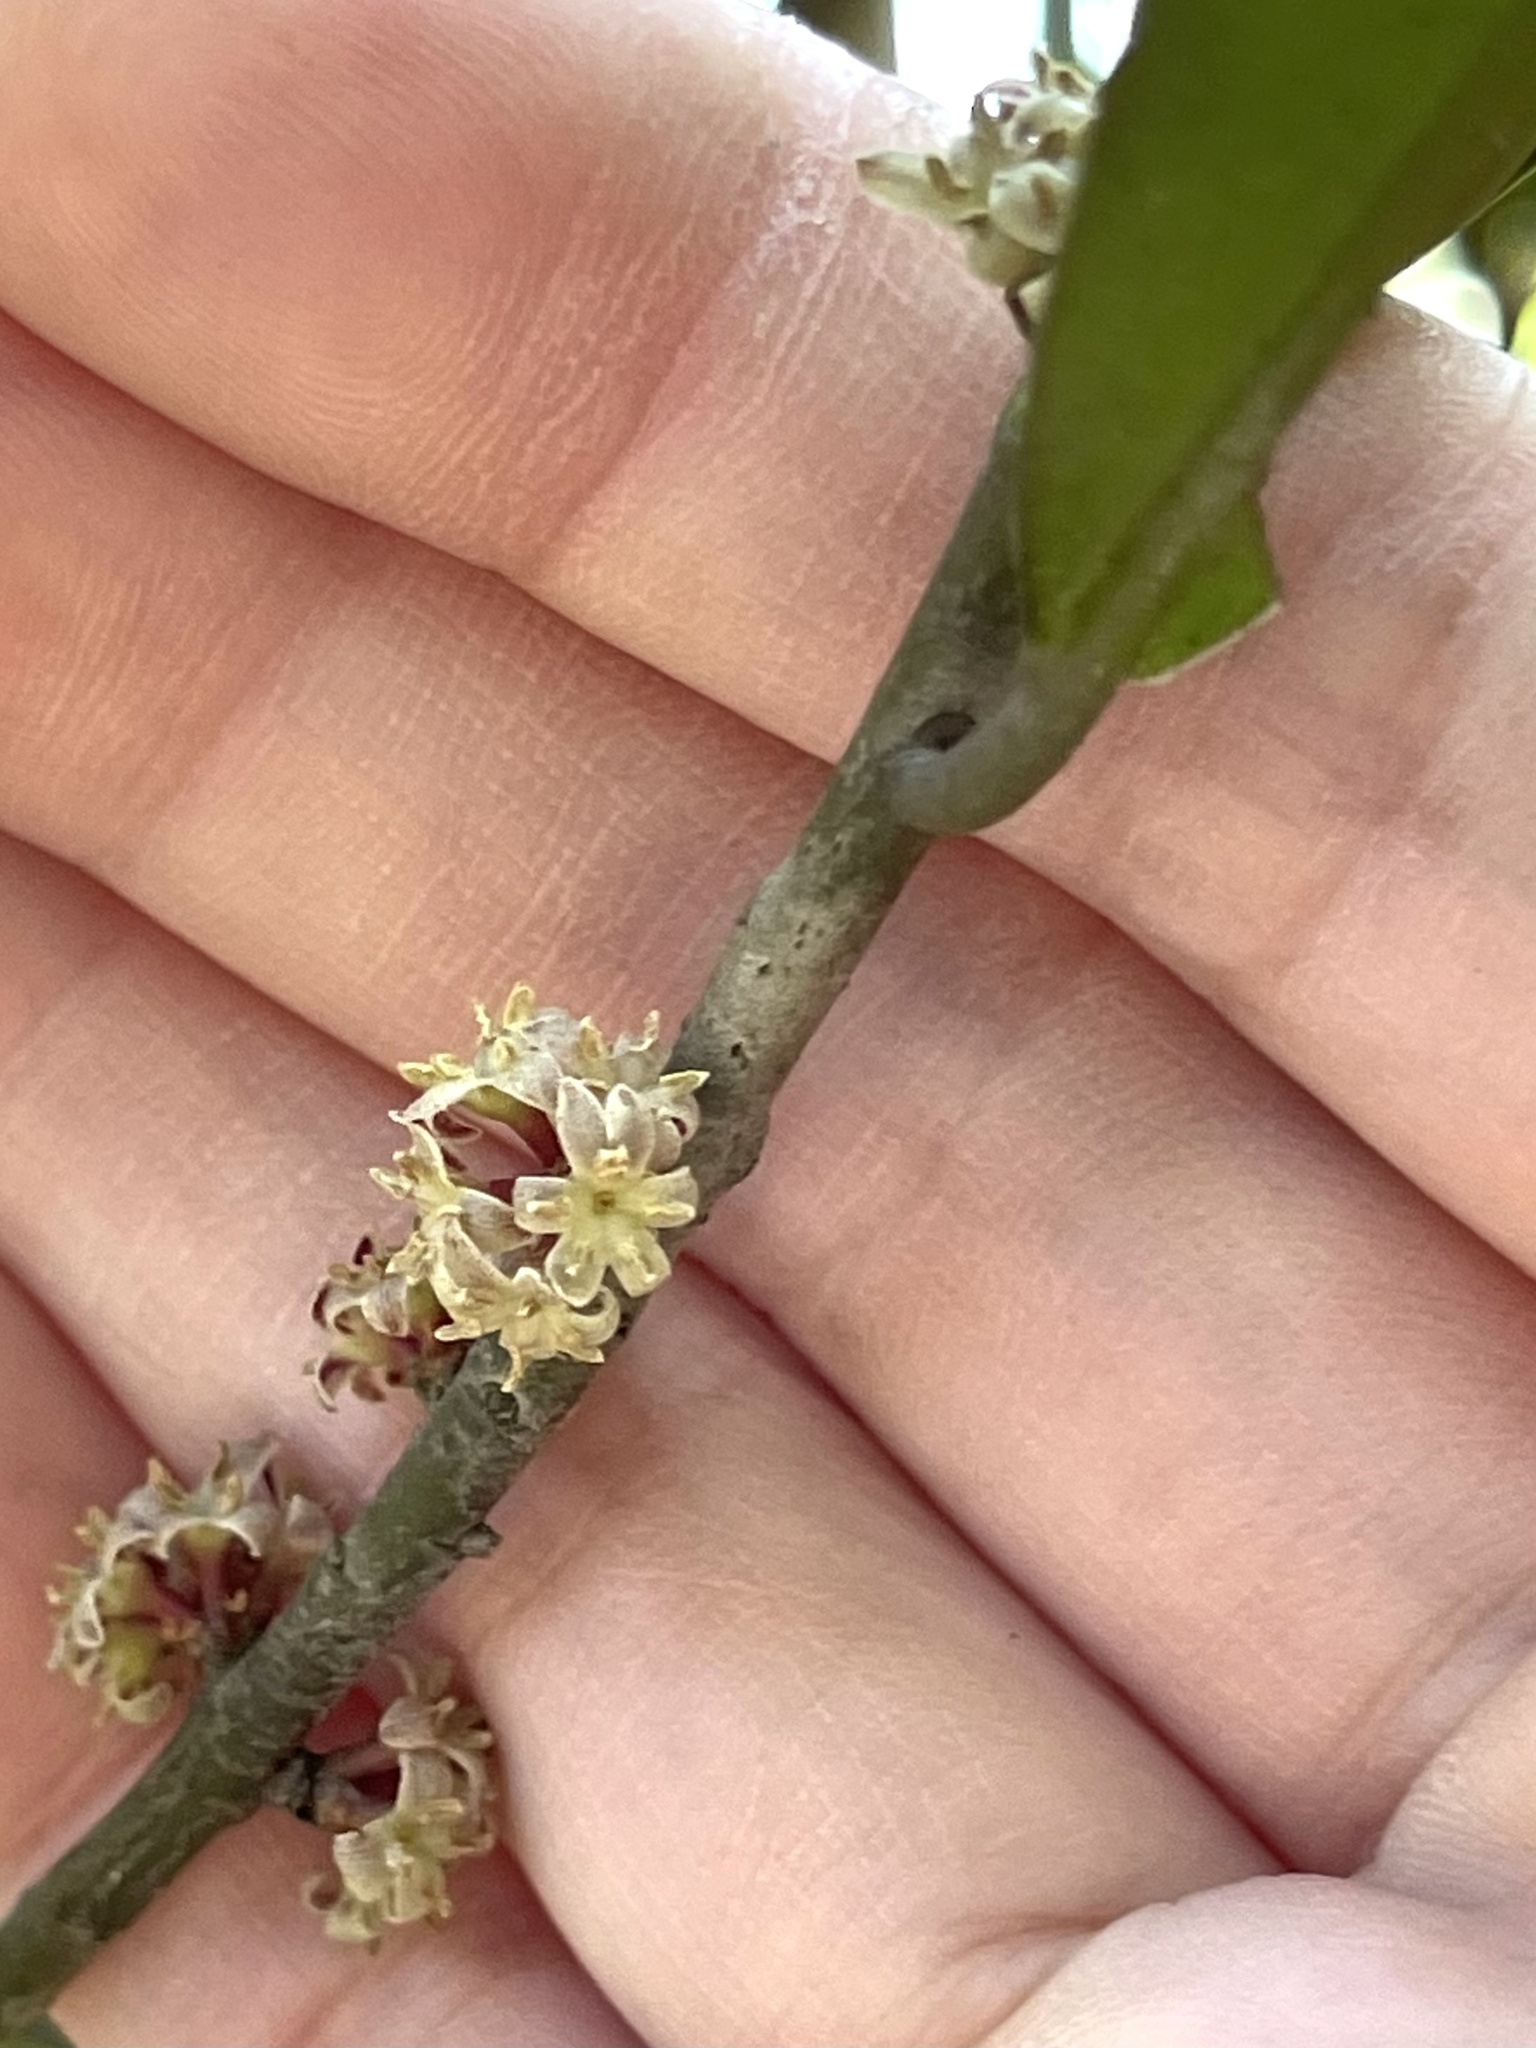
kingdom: Plantae
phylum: Tracheophyta
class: Magnoliopsida
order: Ericales
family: Primulaceae
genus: Myrsine
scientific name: Myrsine seguinii
